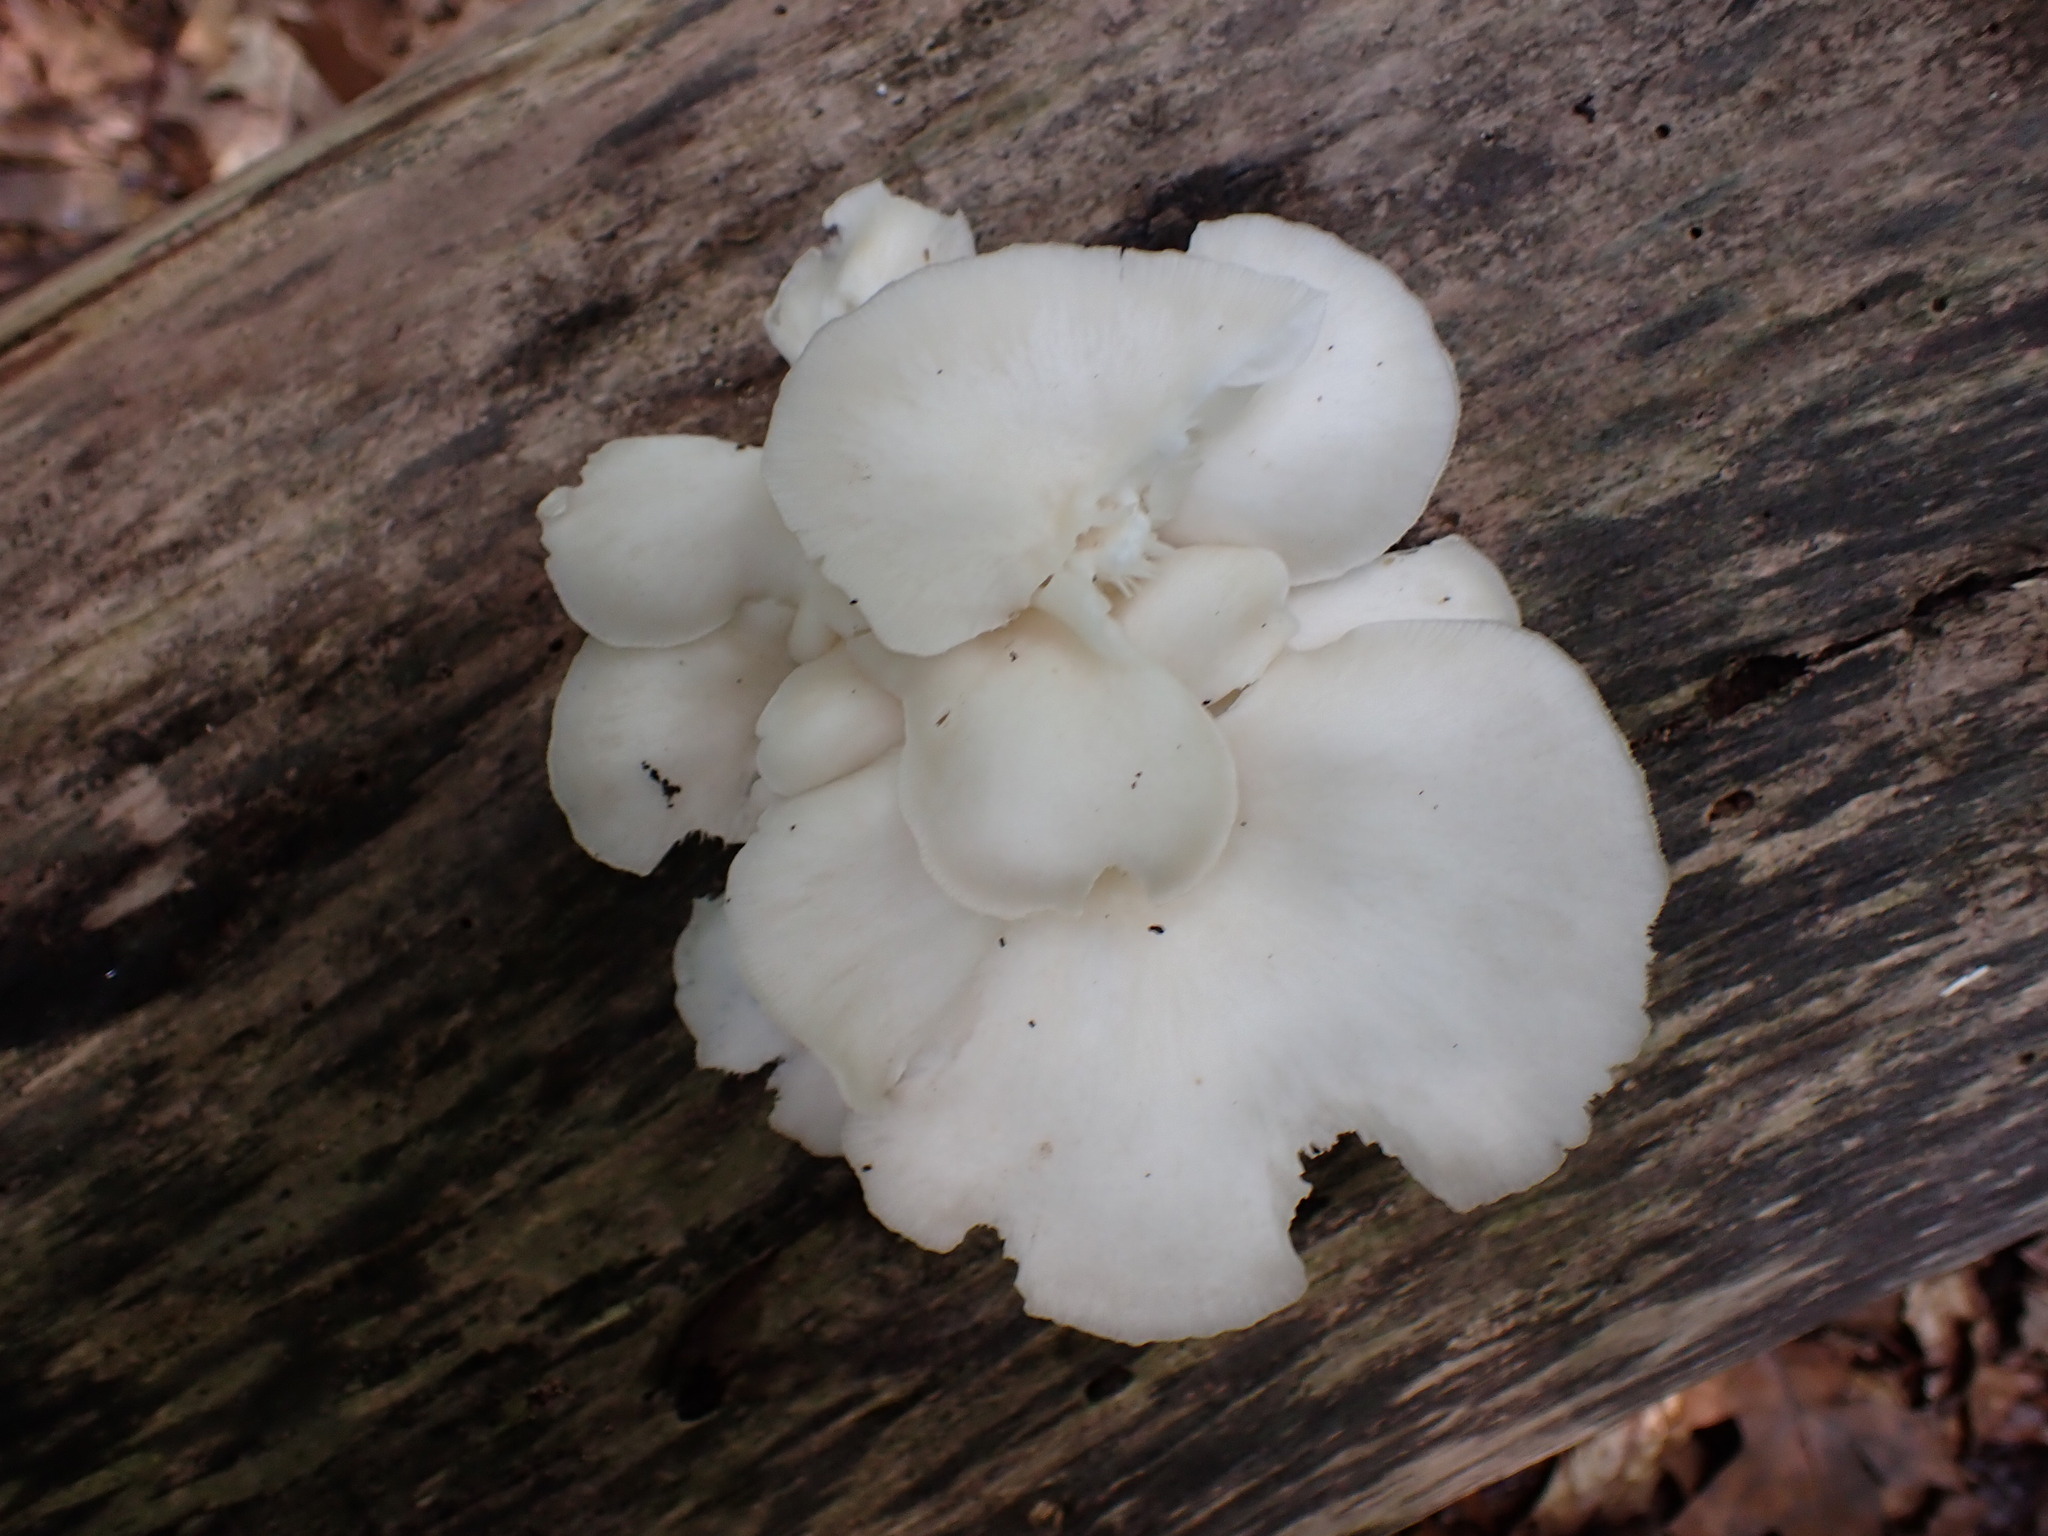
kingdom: Fungi
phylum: Basidiomycota
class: Agaricomycetes
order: Agaricales
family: Pleurotaceae
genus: Pleurotus
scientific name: Pleurotus pulmonarius
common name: Pale oyster
